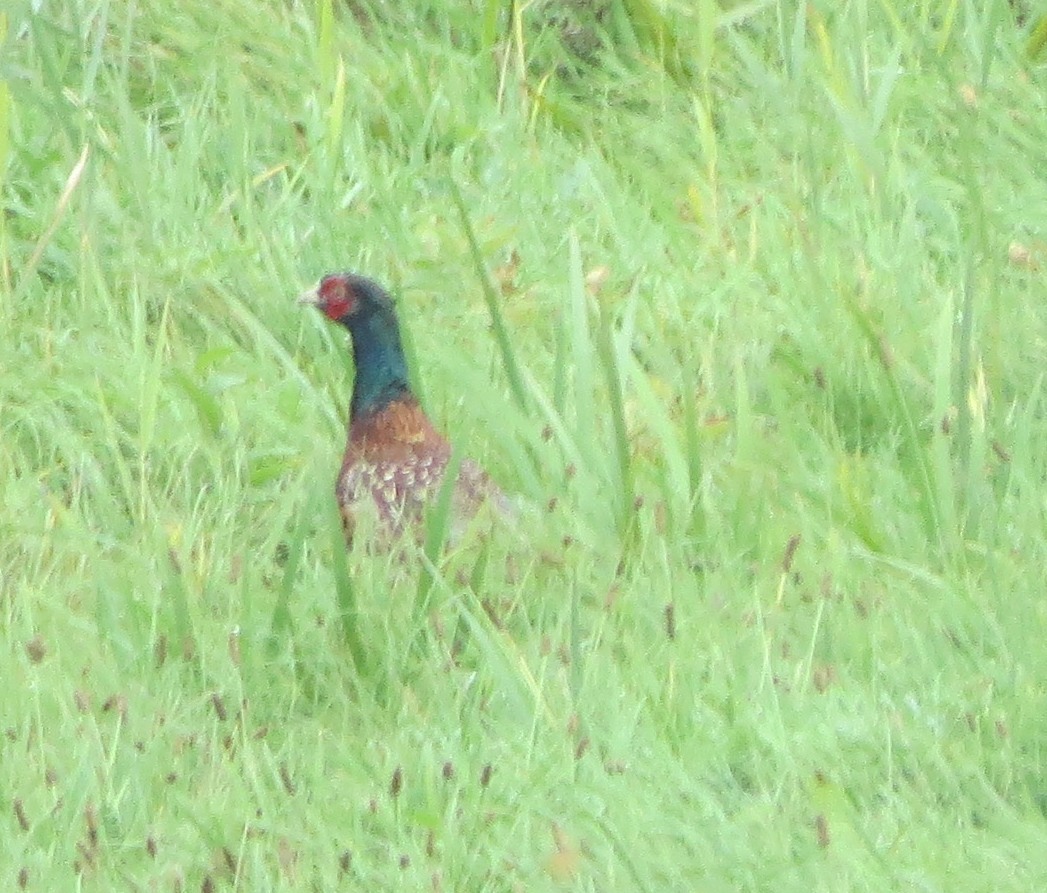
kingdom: Animalia
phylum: Chordata
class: Aves
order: Galliformes
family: Phasianidae
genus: Phasianus
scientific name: Phasianus colchicus
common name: Common pheasant
